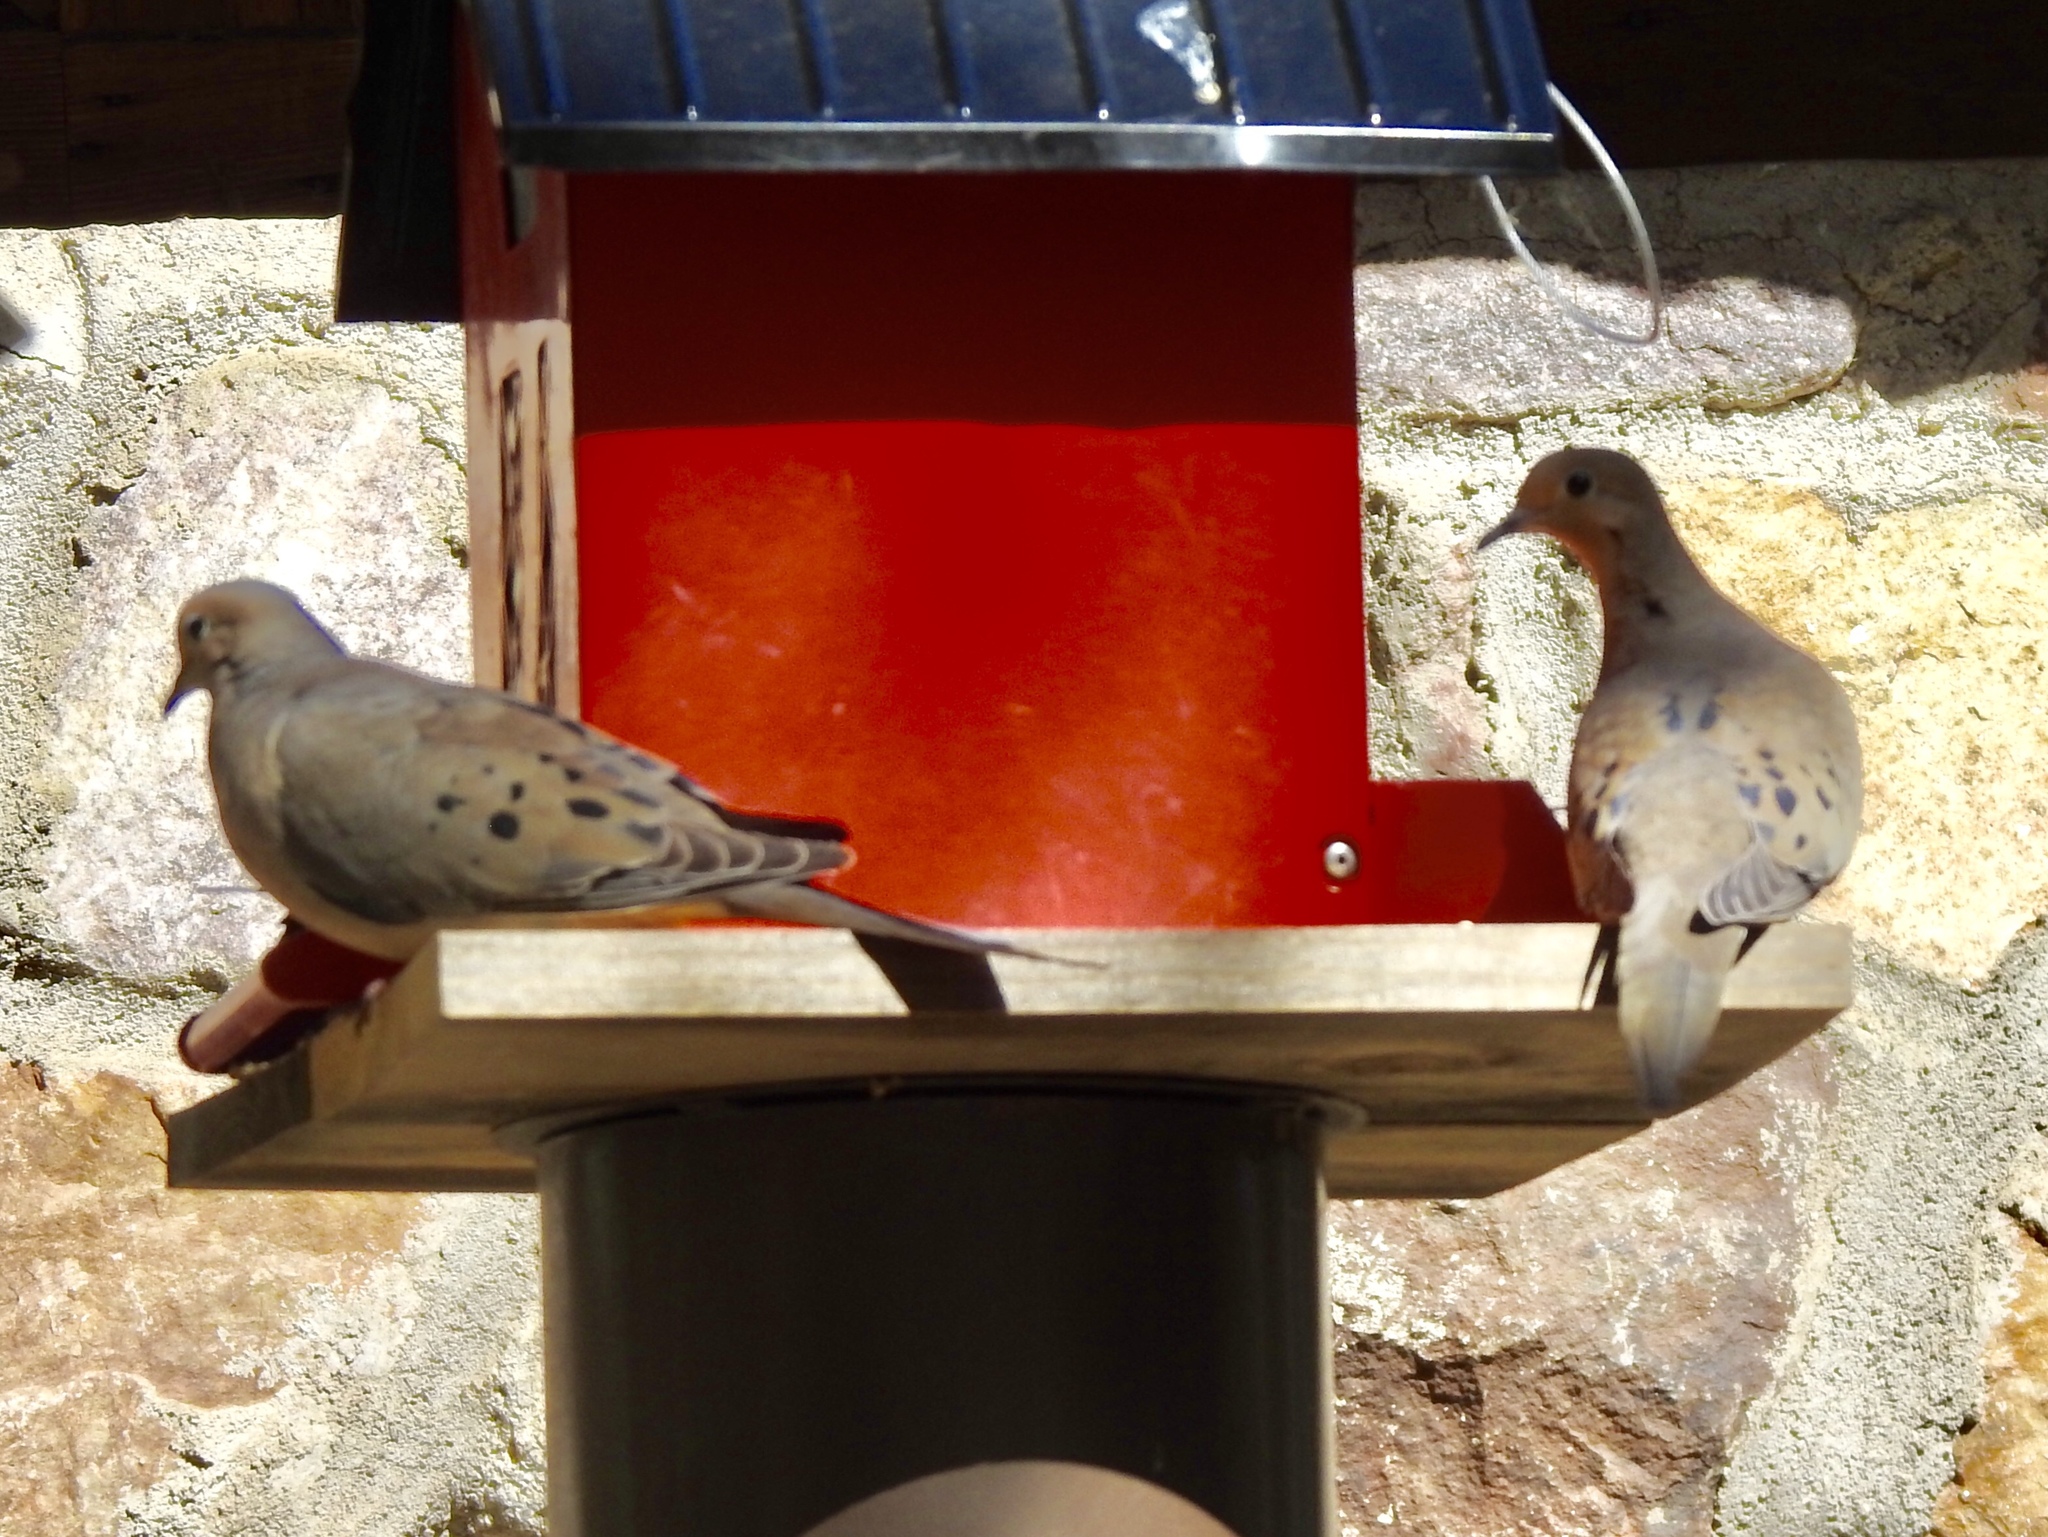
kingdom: Animalia
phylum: Chordata
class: Aves
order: Columbiformes
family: Columbidae
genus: Zenaida
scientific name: Zenaida macroura
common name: Mourning dove
